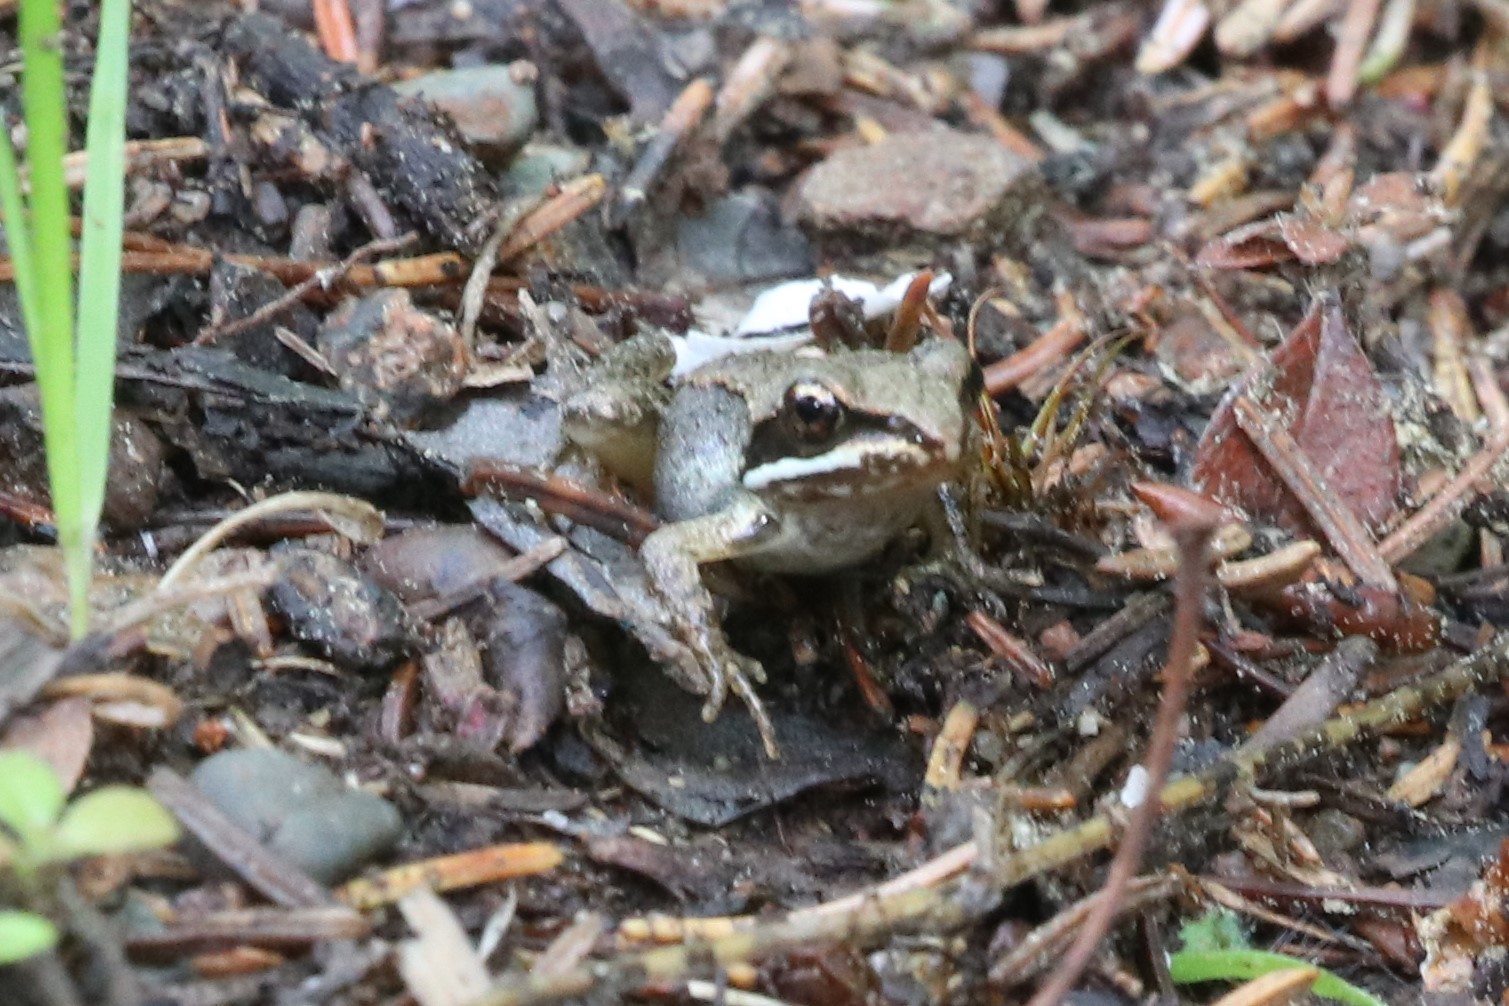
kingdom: Animalia
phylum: Chordata
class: Amphibia
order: Anura
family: Ranidae
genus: Lithobates
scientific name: Lithobates sylvaticus
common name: Wood frog
